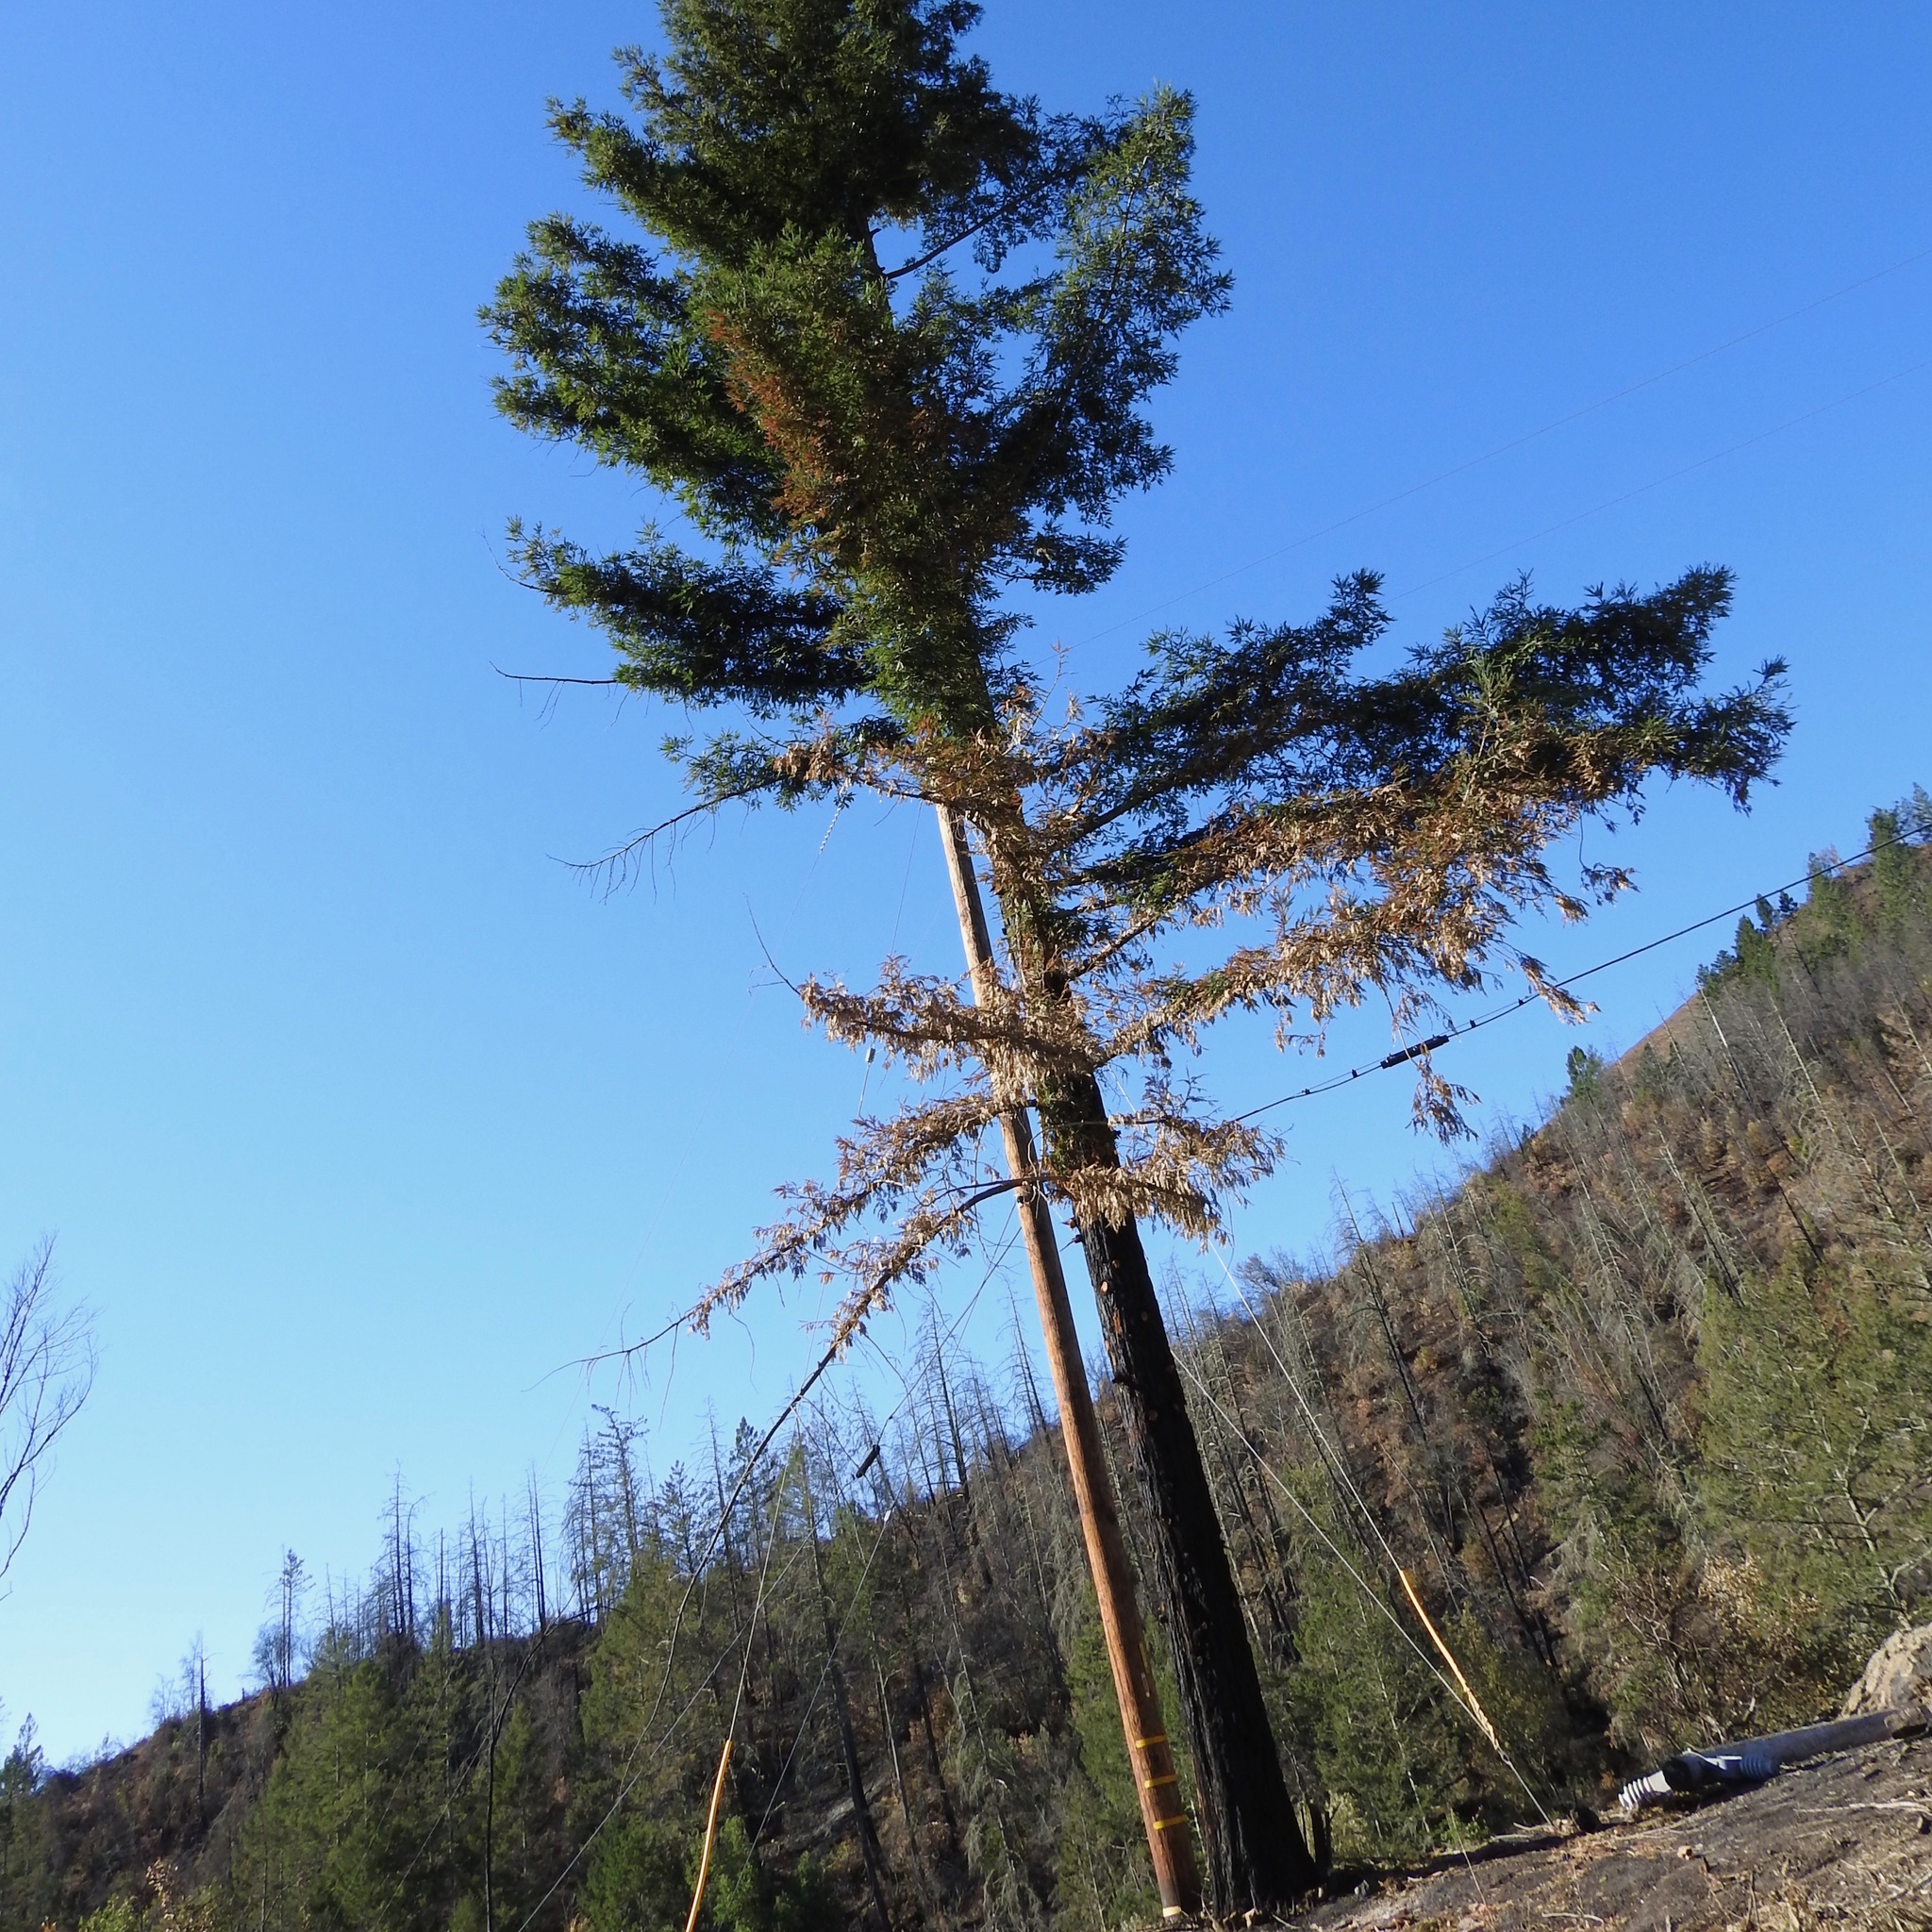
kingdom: Plantae
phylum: Tracheophyta
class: Pinopsida
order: Pinales
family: Cupressaceae
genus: Sequoia
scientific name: Sequoia sempervirens
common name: Coast redwood
